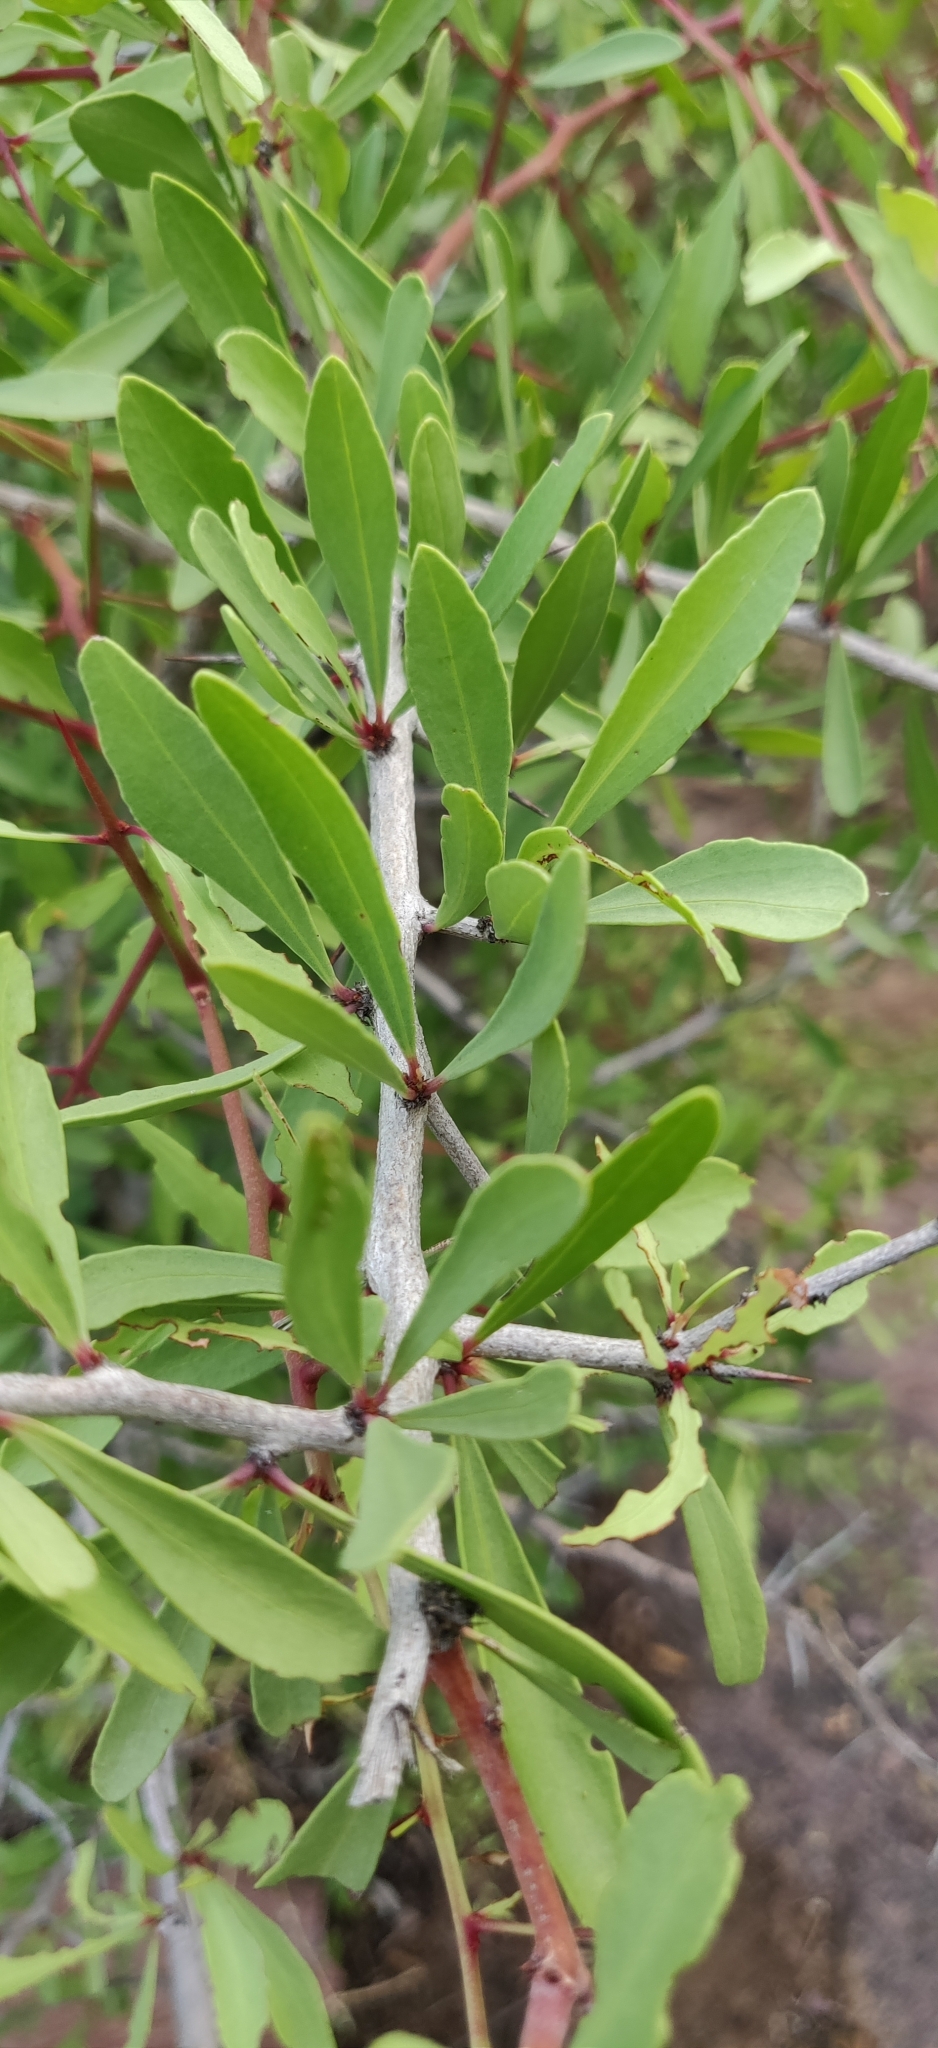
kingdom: Plantae
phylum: Tracheophyta
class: Magnoliopsida
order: Celastrales
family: Celastraceae
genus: Gymnosporia
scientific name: Gymnosporia senegalensis
